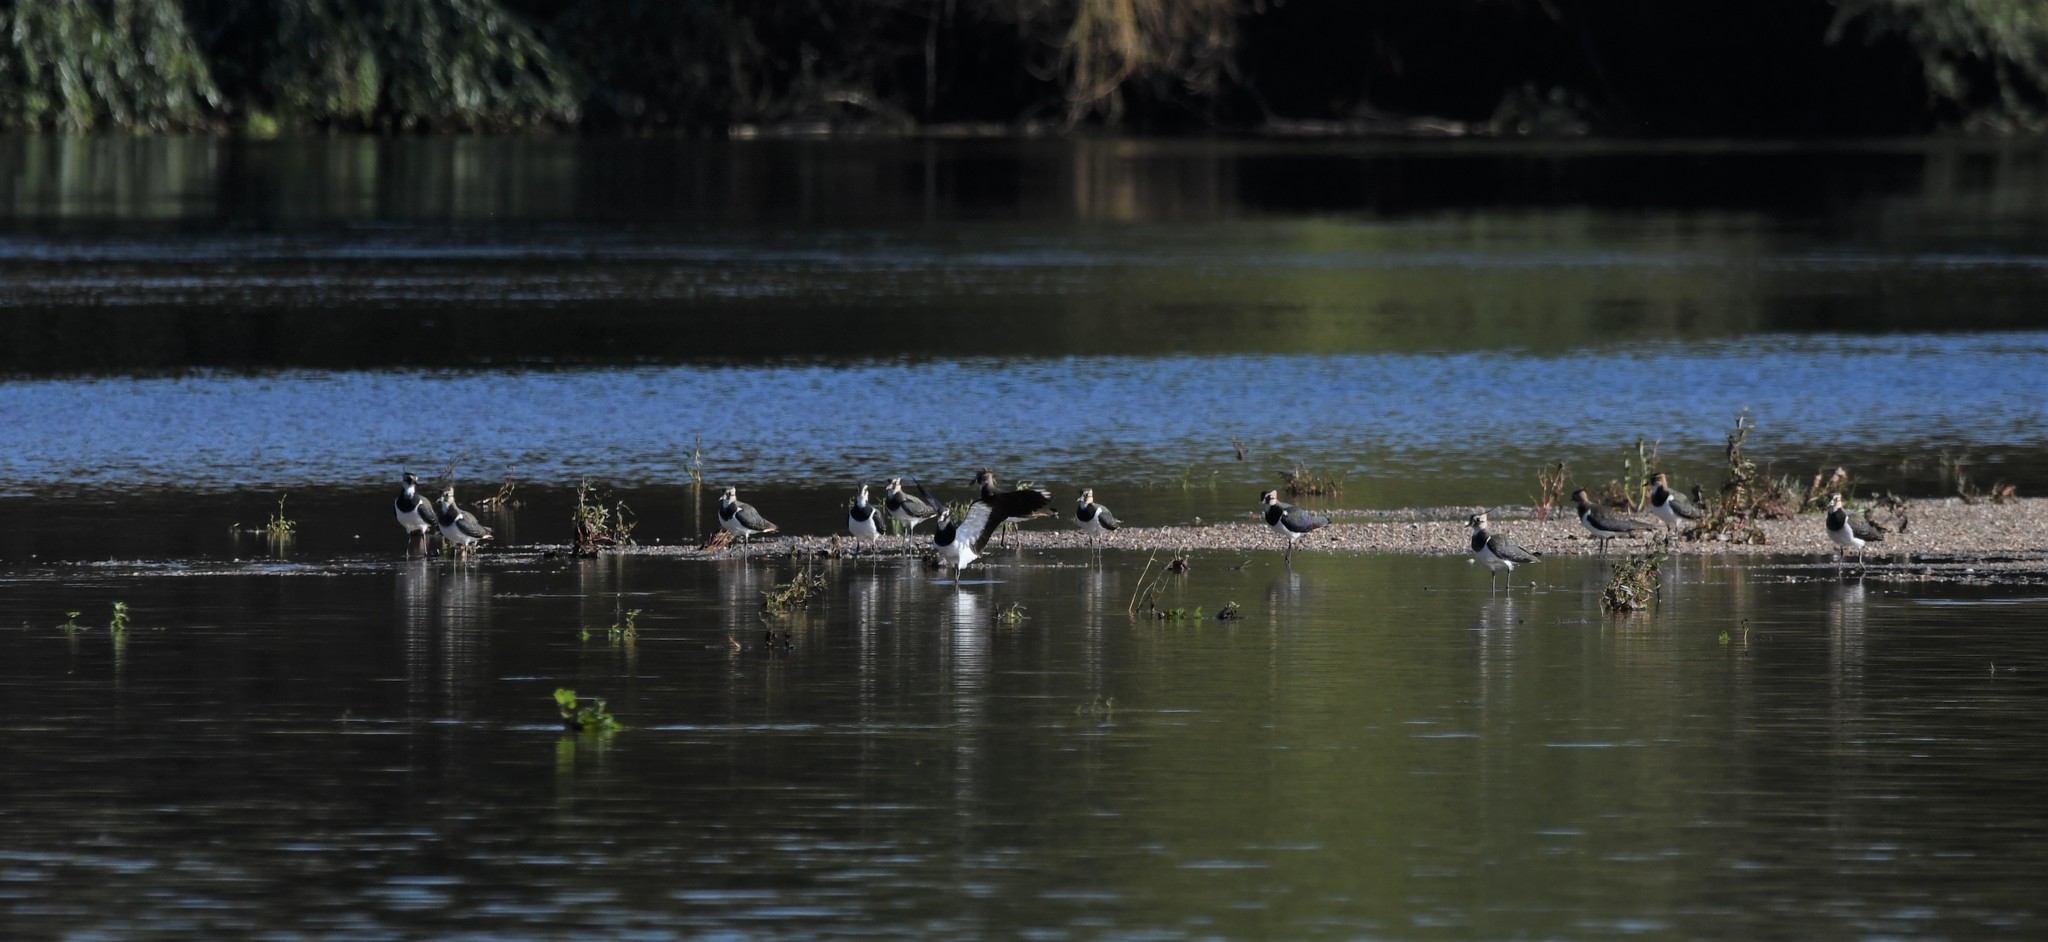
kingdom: Animalia
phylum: Chordata
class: Aves
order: Charadriiformes
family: Charadriidae
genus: Vanellus
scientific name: Vanellus vanellus
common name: Northern lapwing
